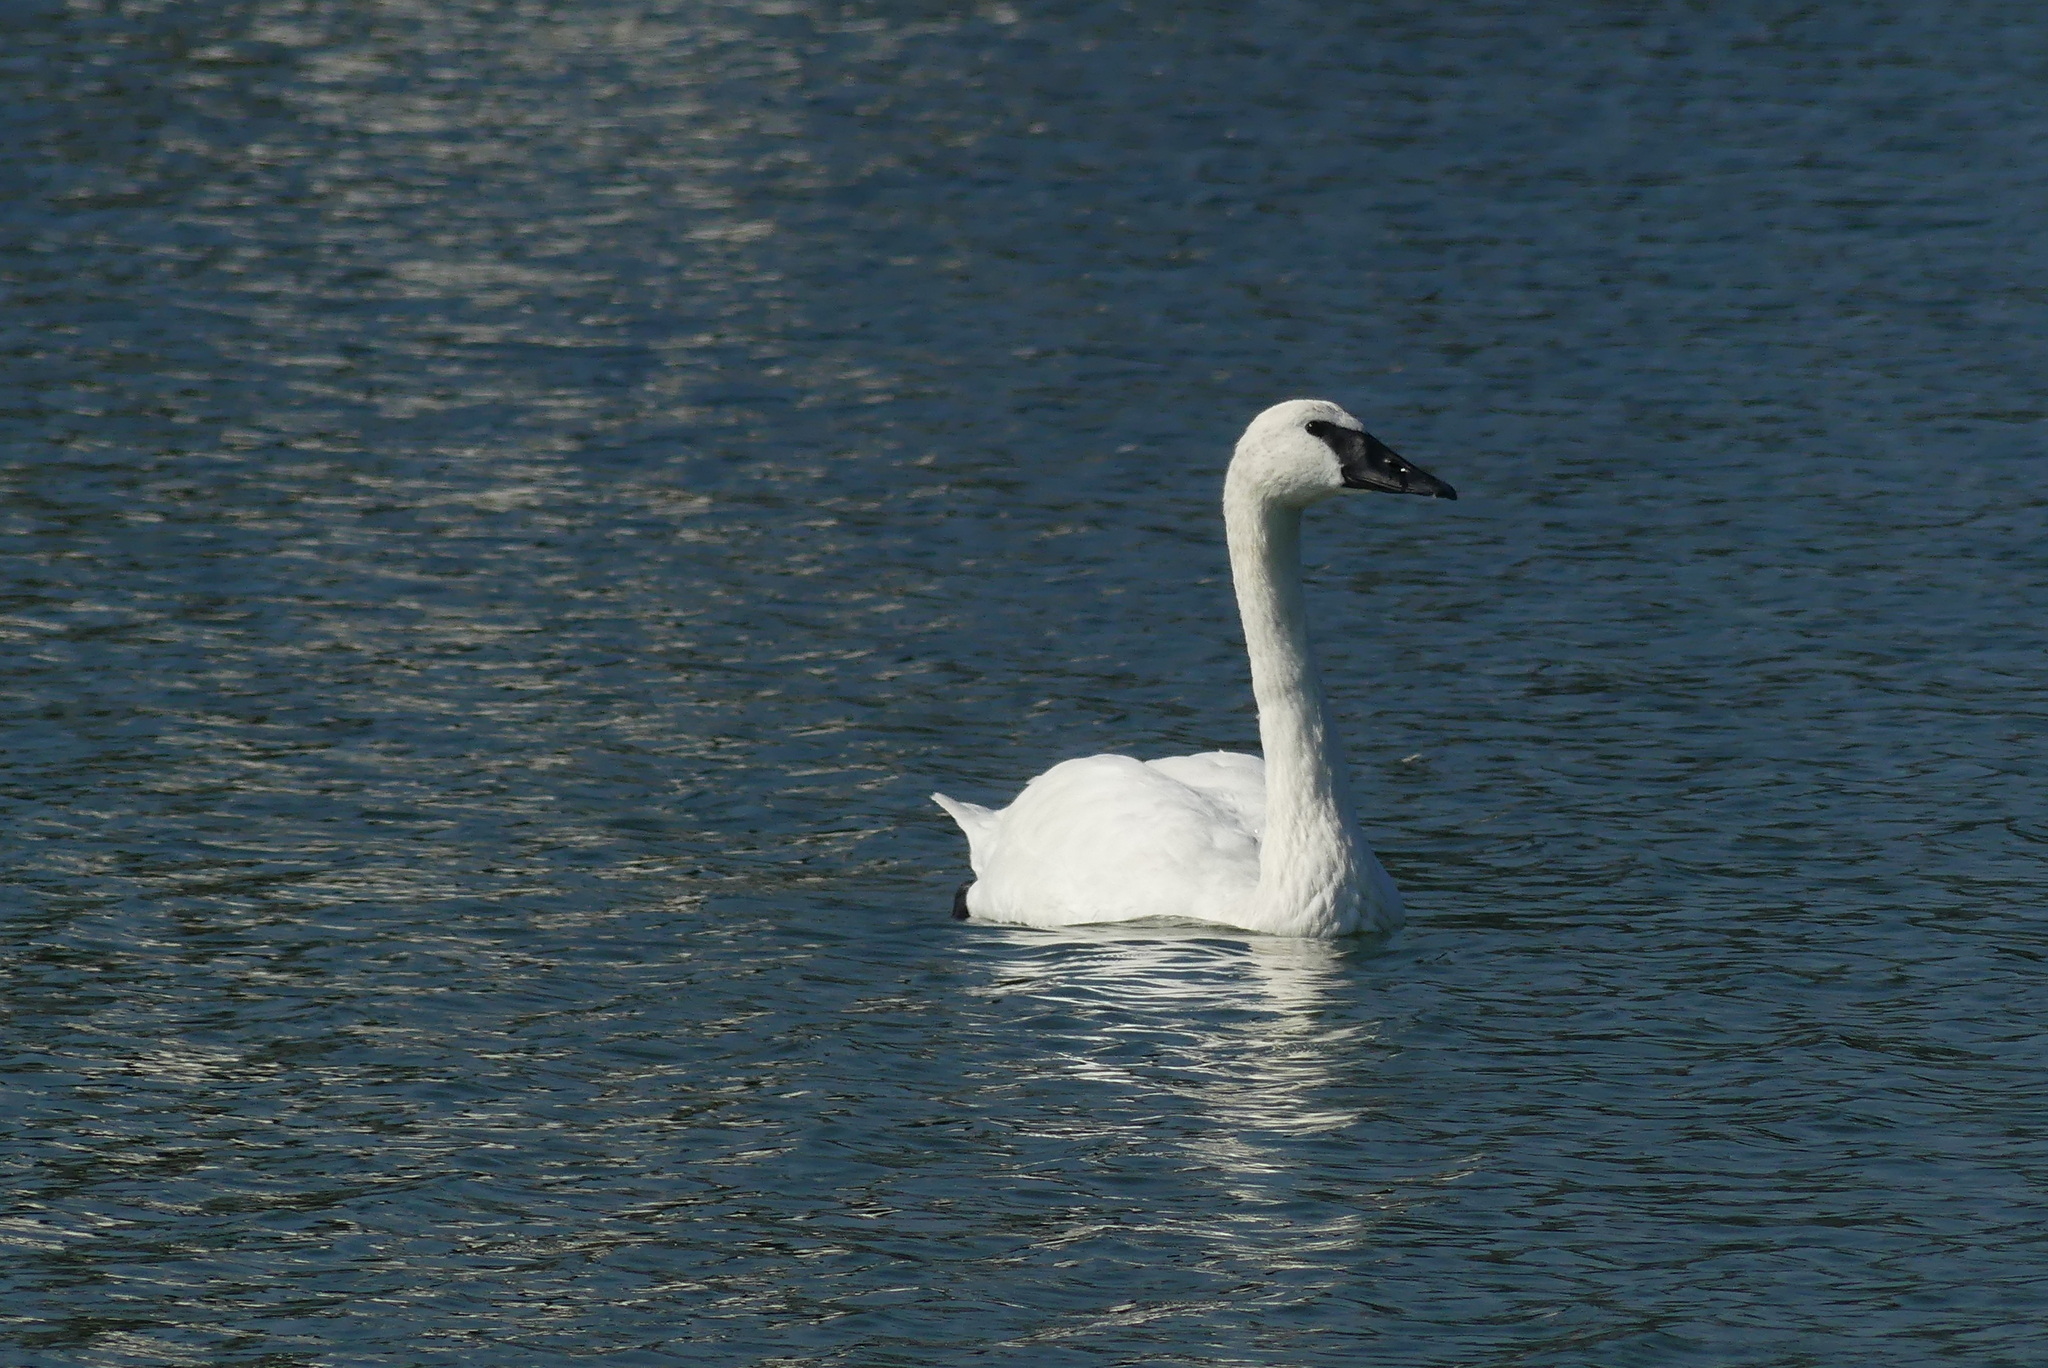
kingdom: Animalia
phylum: Chordata
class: Aves
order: Anseriformes
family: Anatidae
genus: Cygnus
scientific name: Cygnus buccinator
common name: Trumpeter swan
